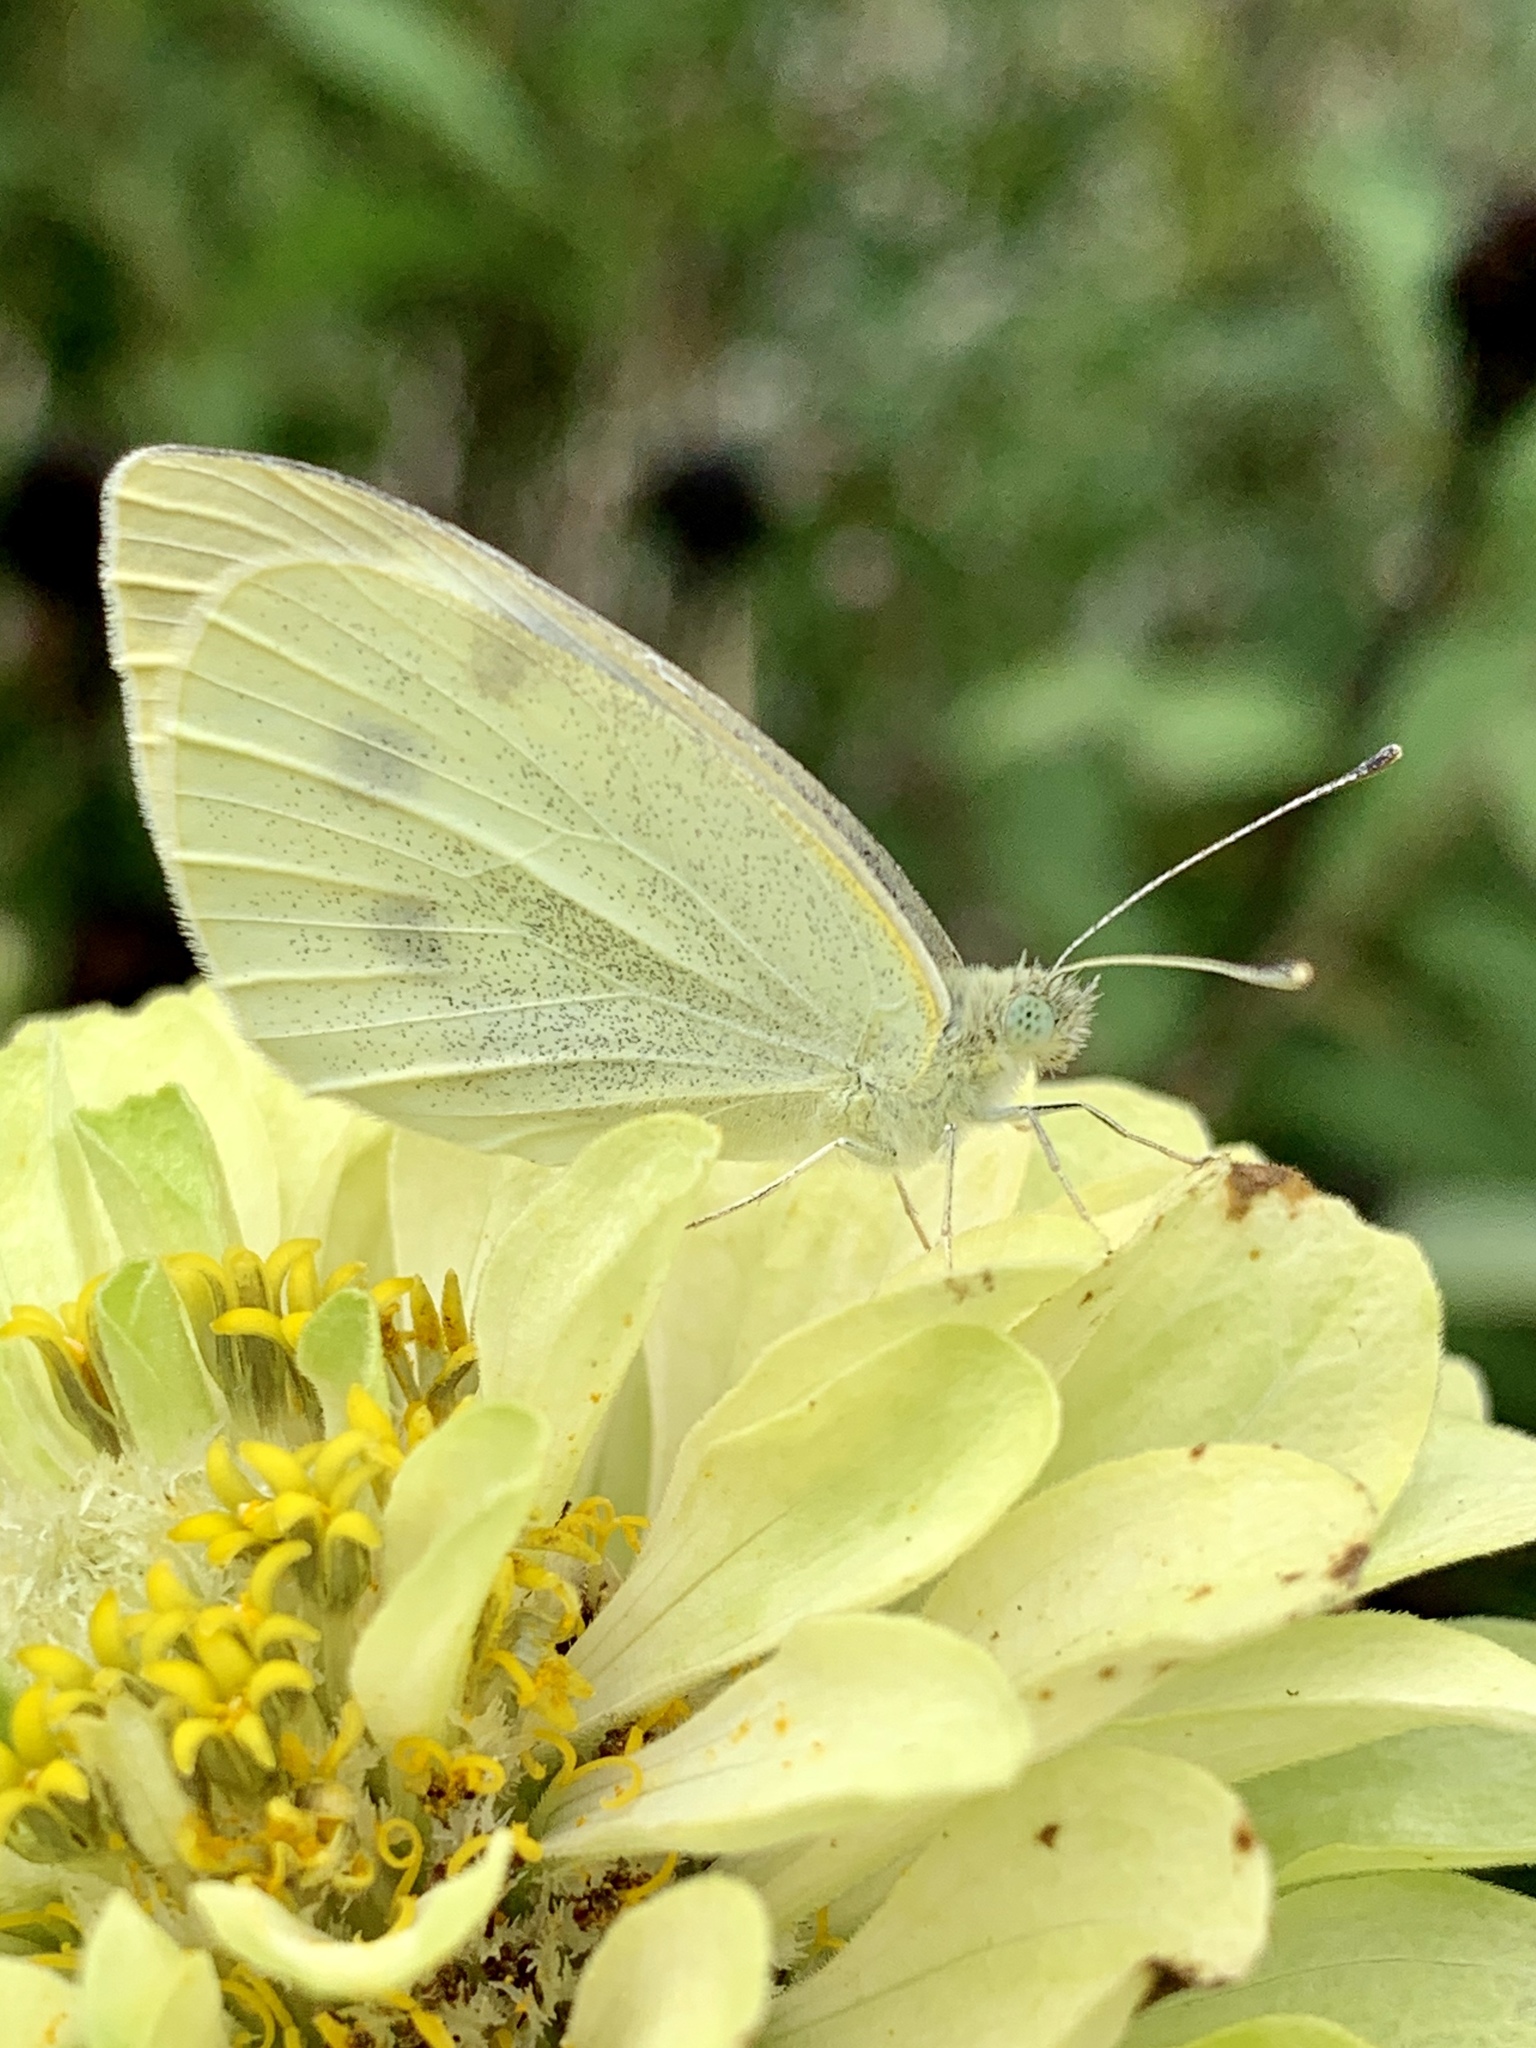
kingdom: Animalia
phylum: Arthropoda
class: Insecta
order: Lepidoptera
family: Pieridae
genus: Pieris
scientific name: Pieris rapae
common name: Small white
